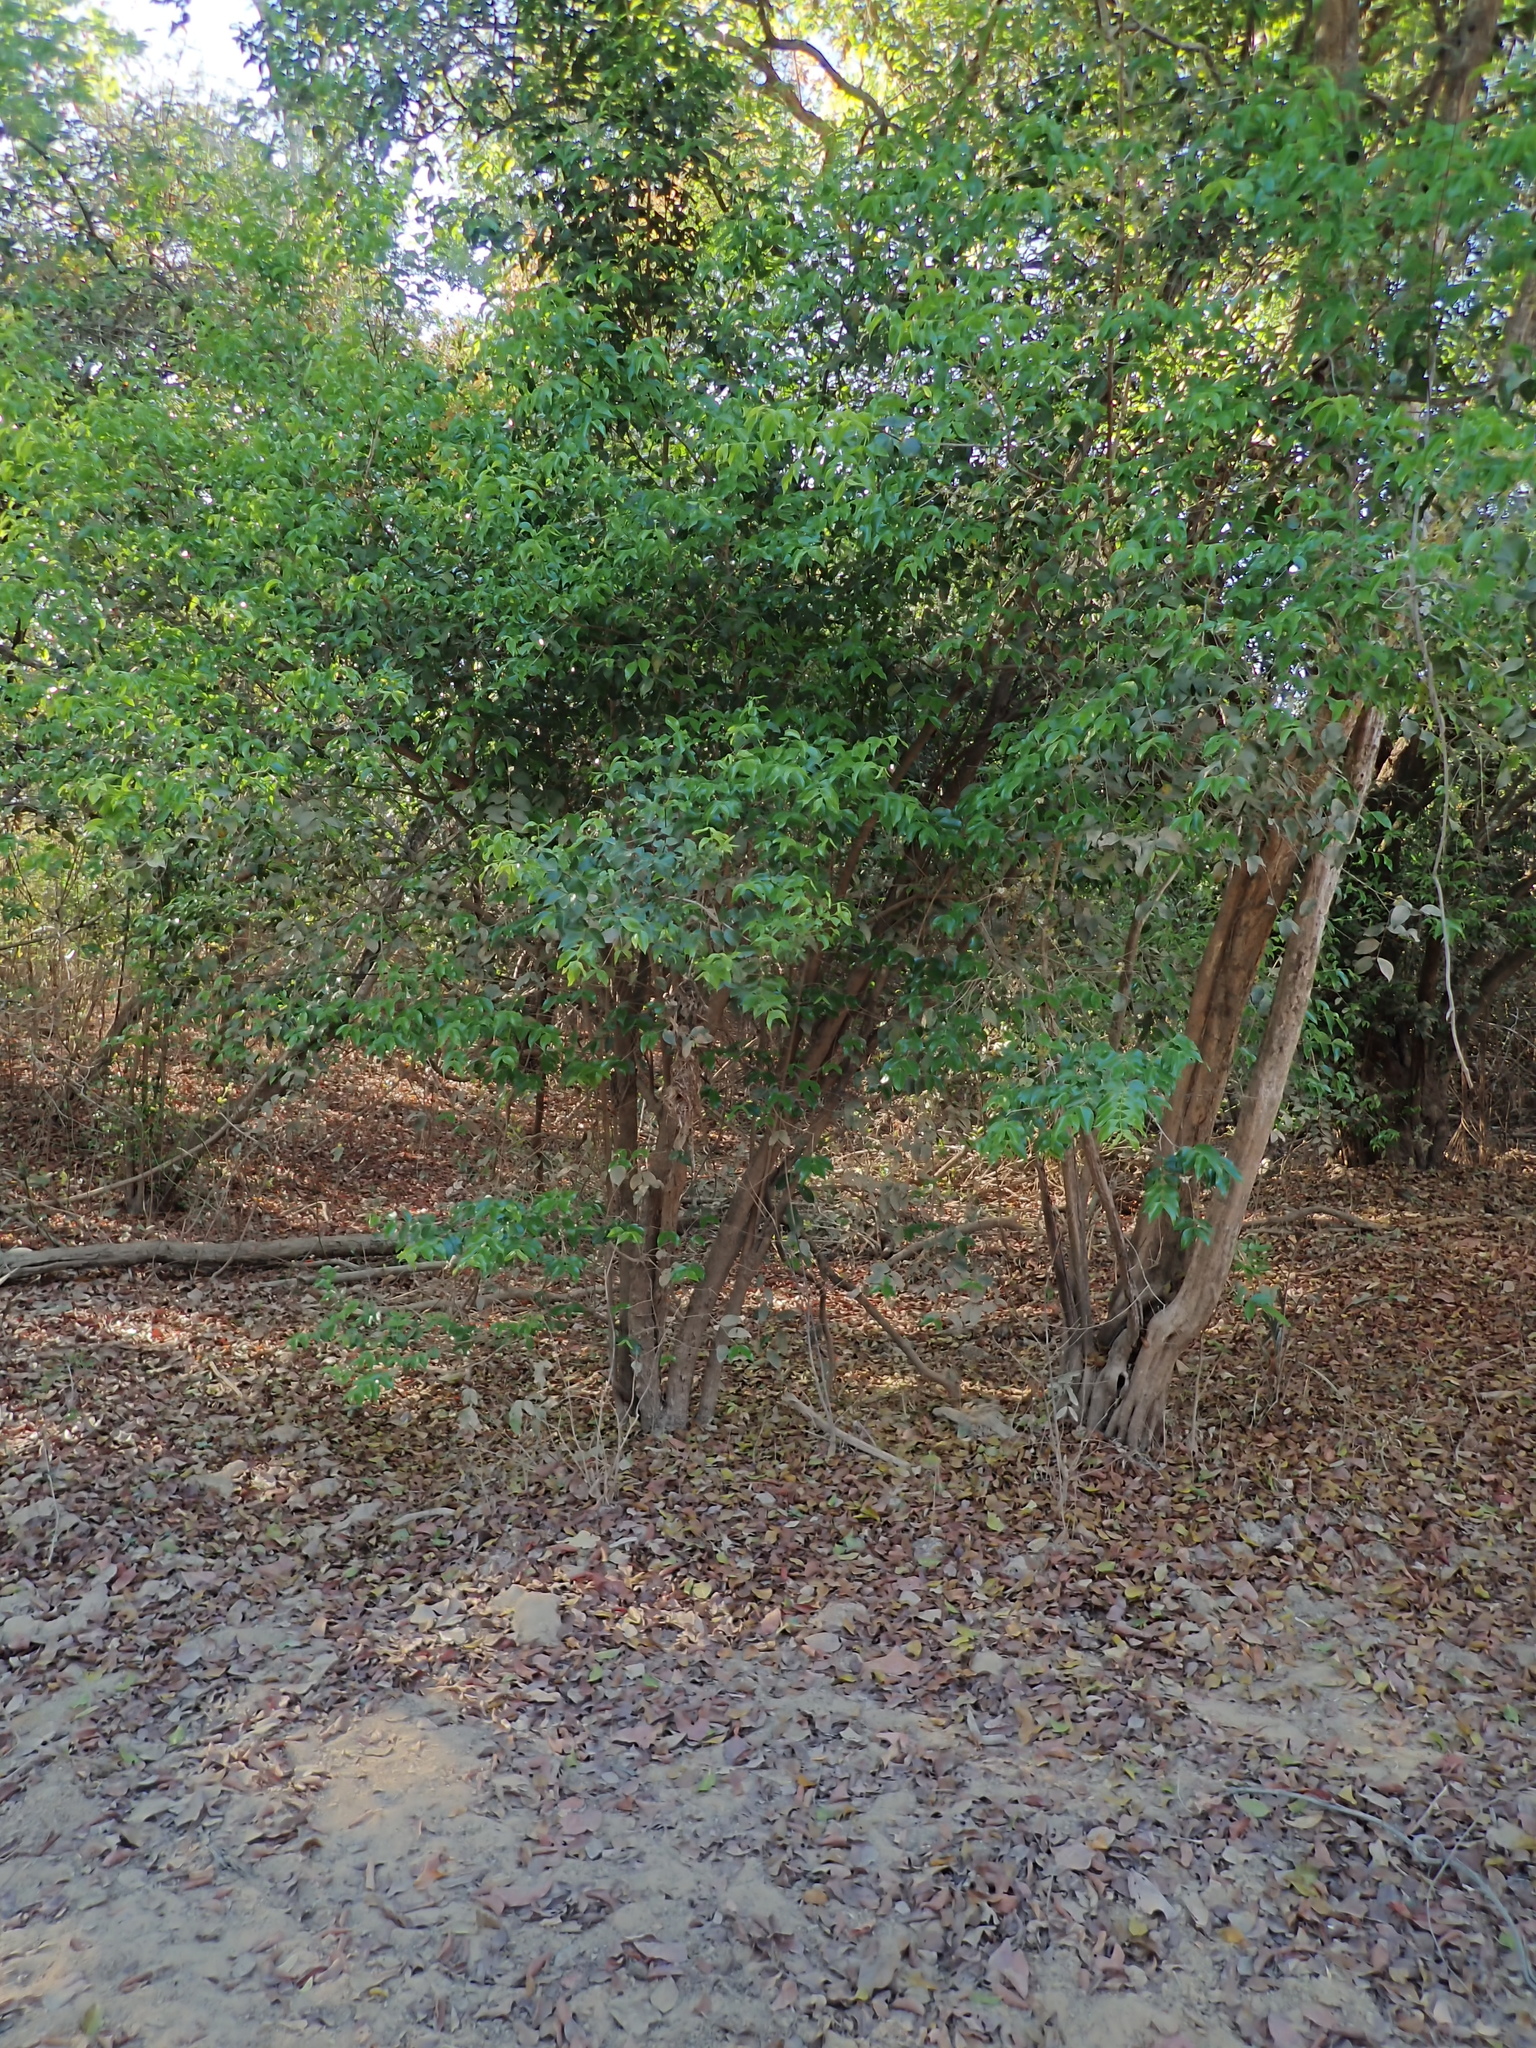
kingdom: Plantae
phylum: Tracheophyta
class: Magnoliopsida
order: Myrtales
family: Melastomataceae
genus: Mouriri
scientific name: Mouriri guianensis
